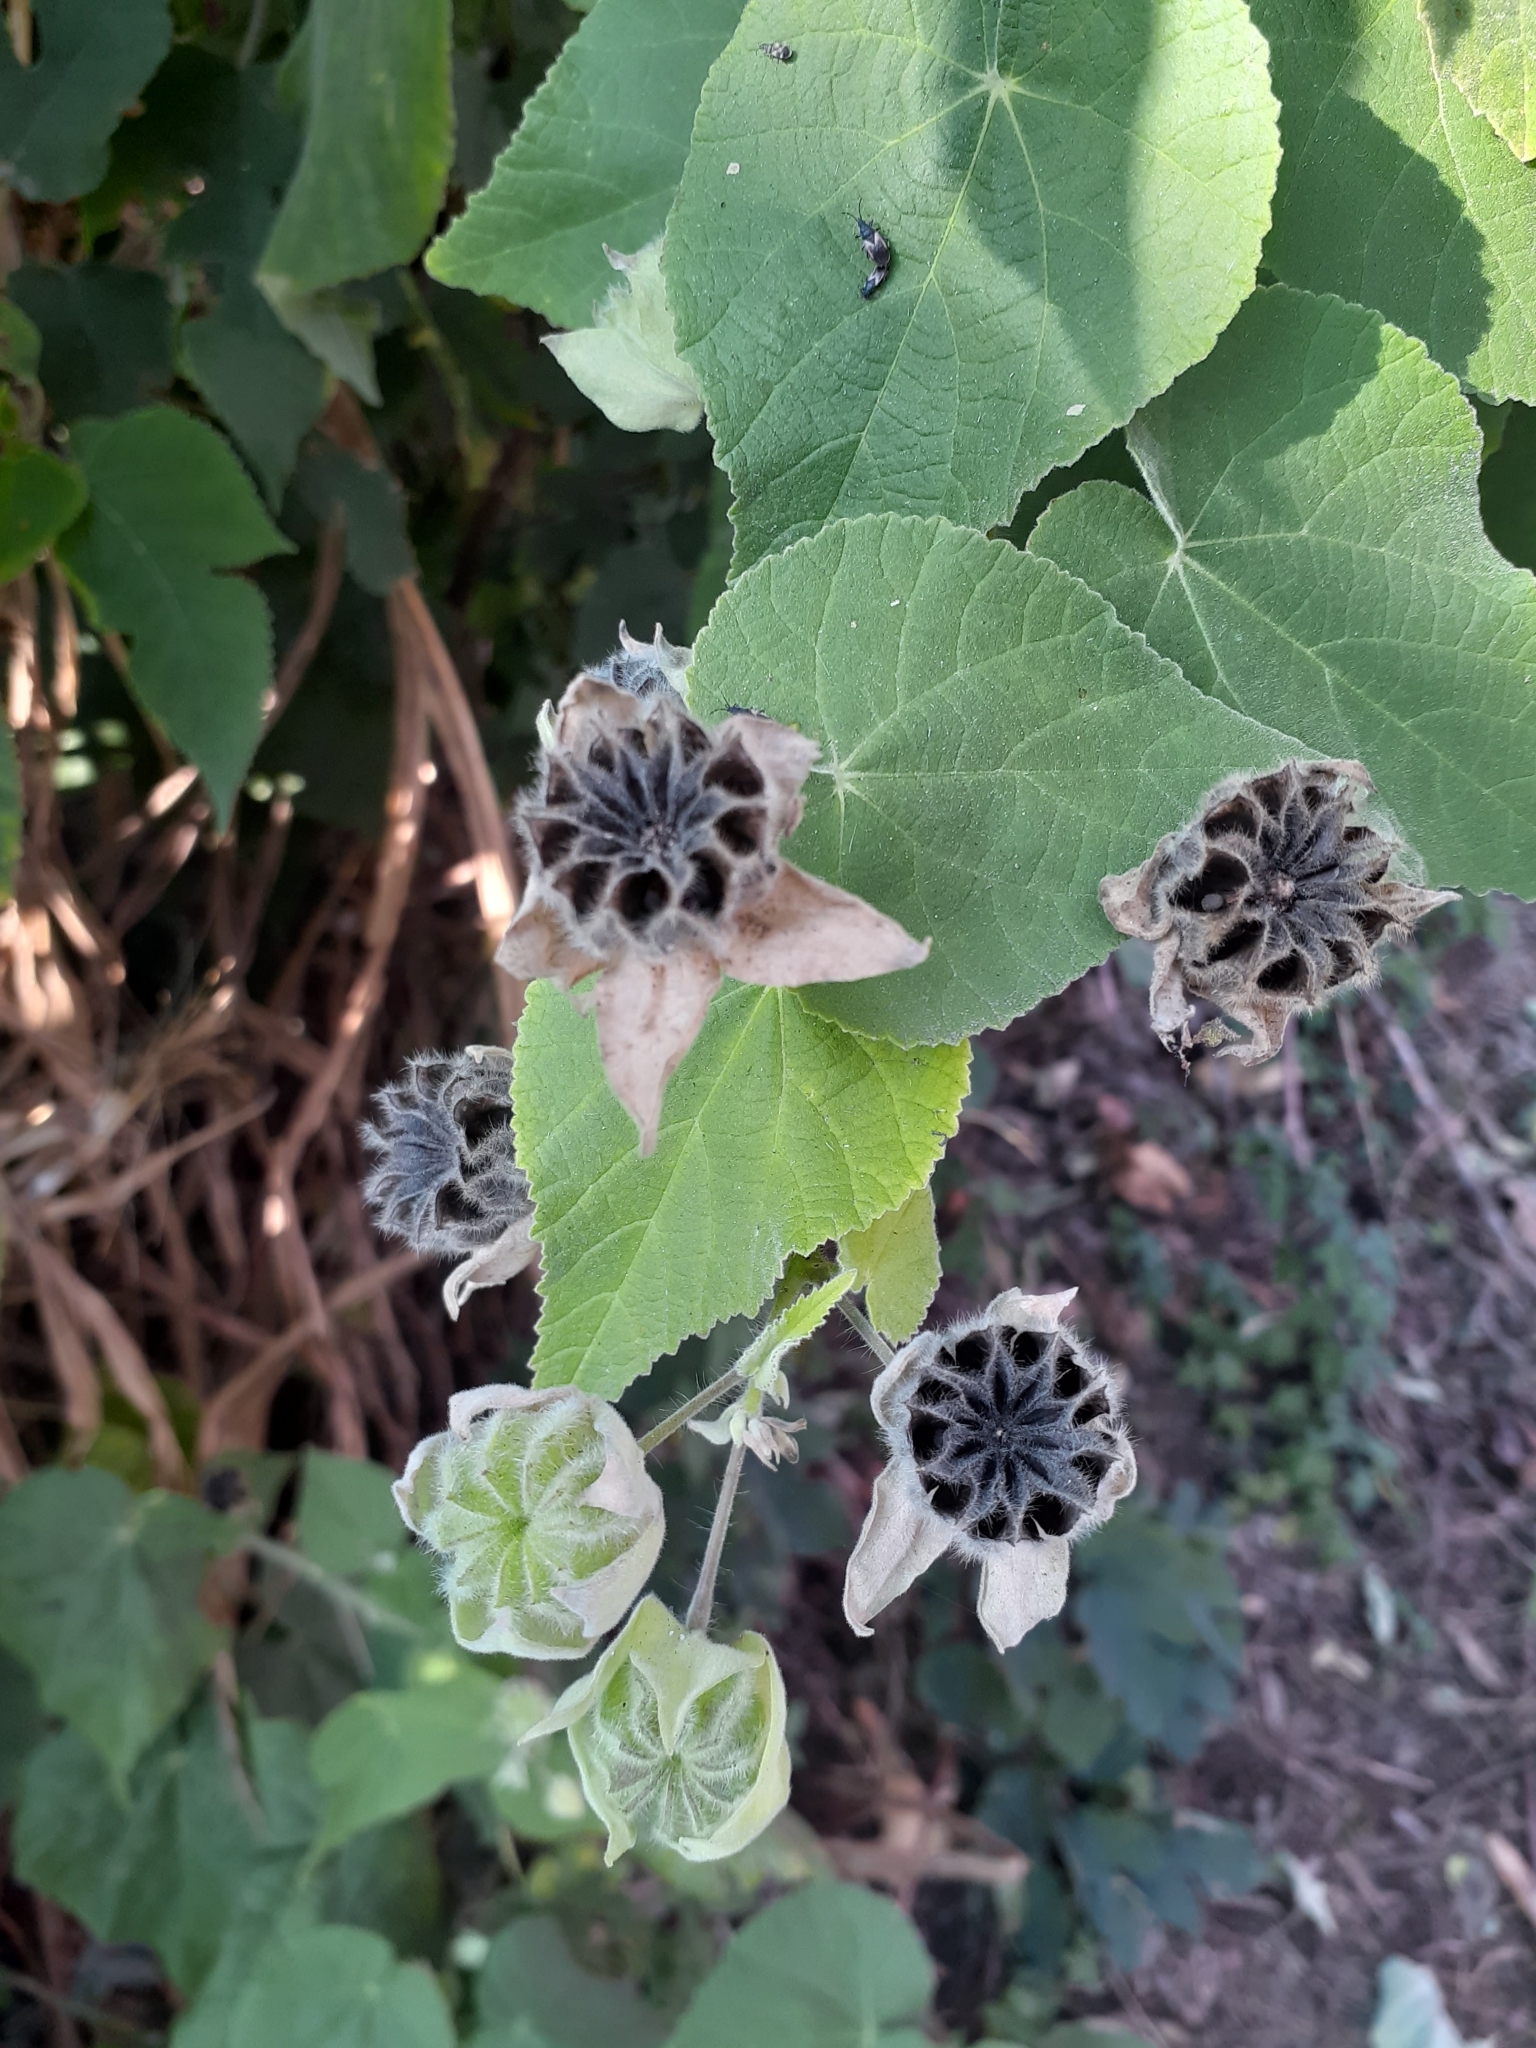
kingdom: Plantae
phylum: Tracheophyta
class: Magnoliopsida
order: Malvales
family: Malvaceae
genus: Abutilon
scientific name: Abutilon grandifolium
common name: Hairy abutilon
